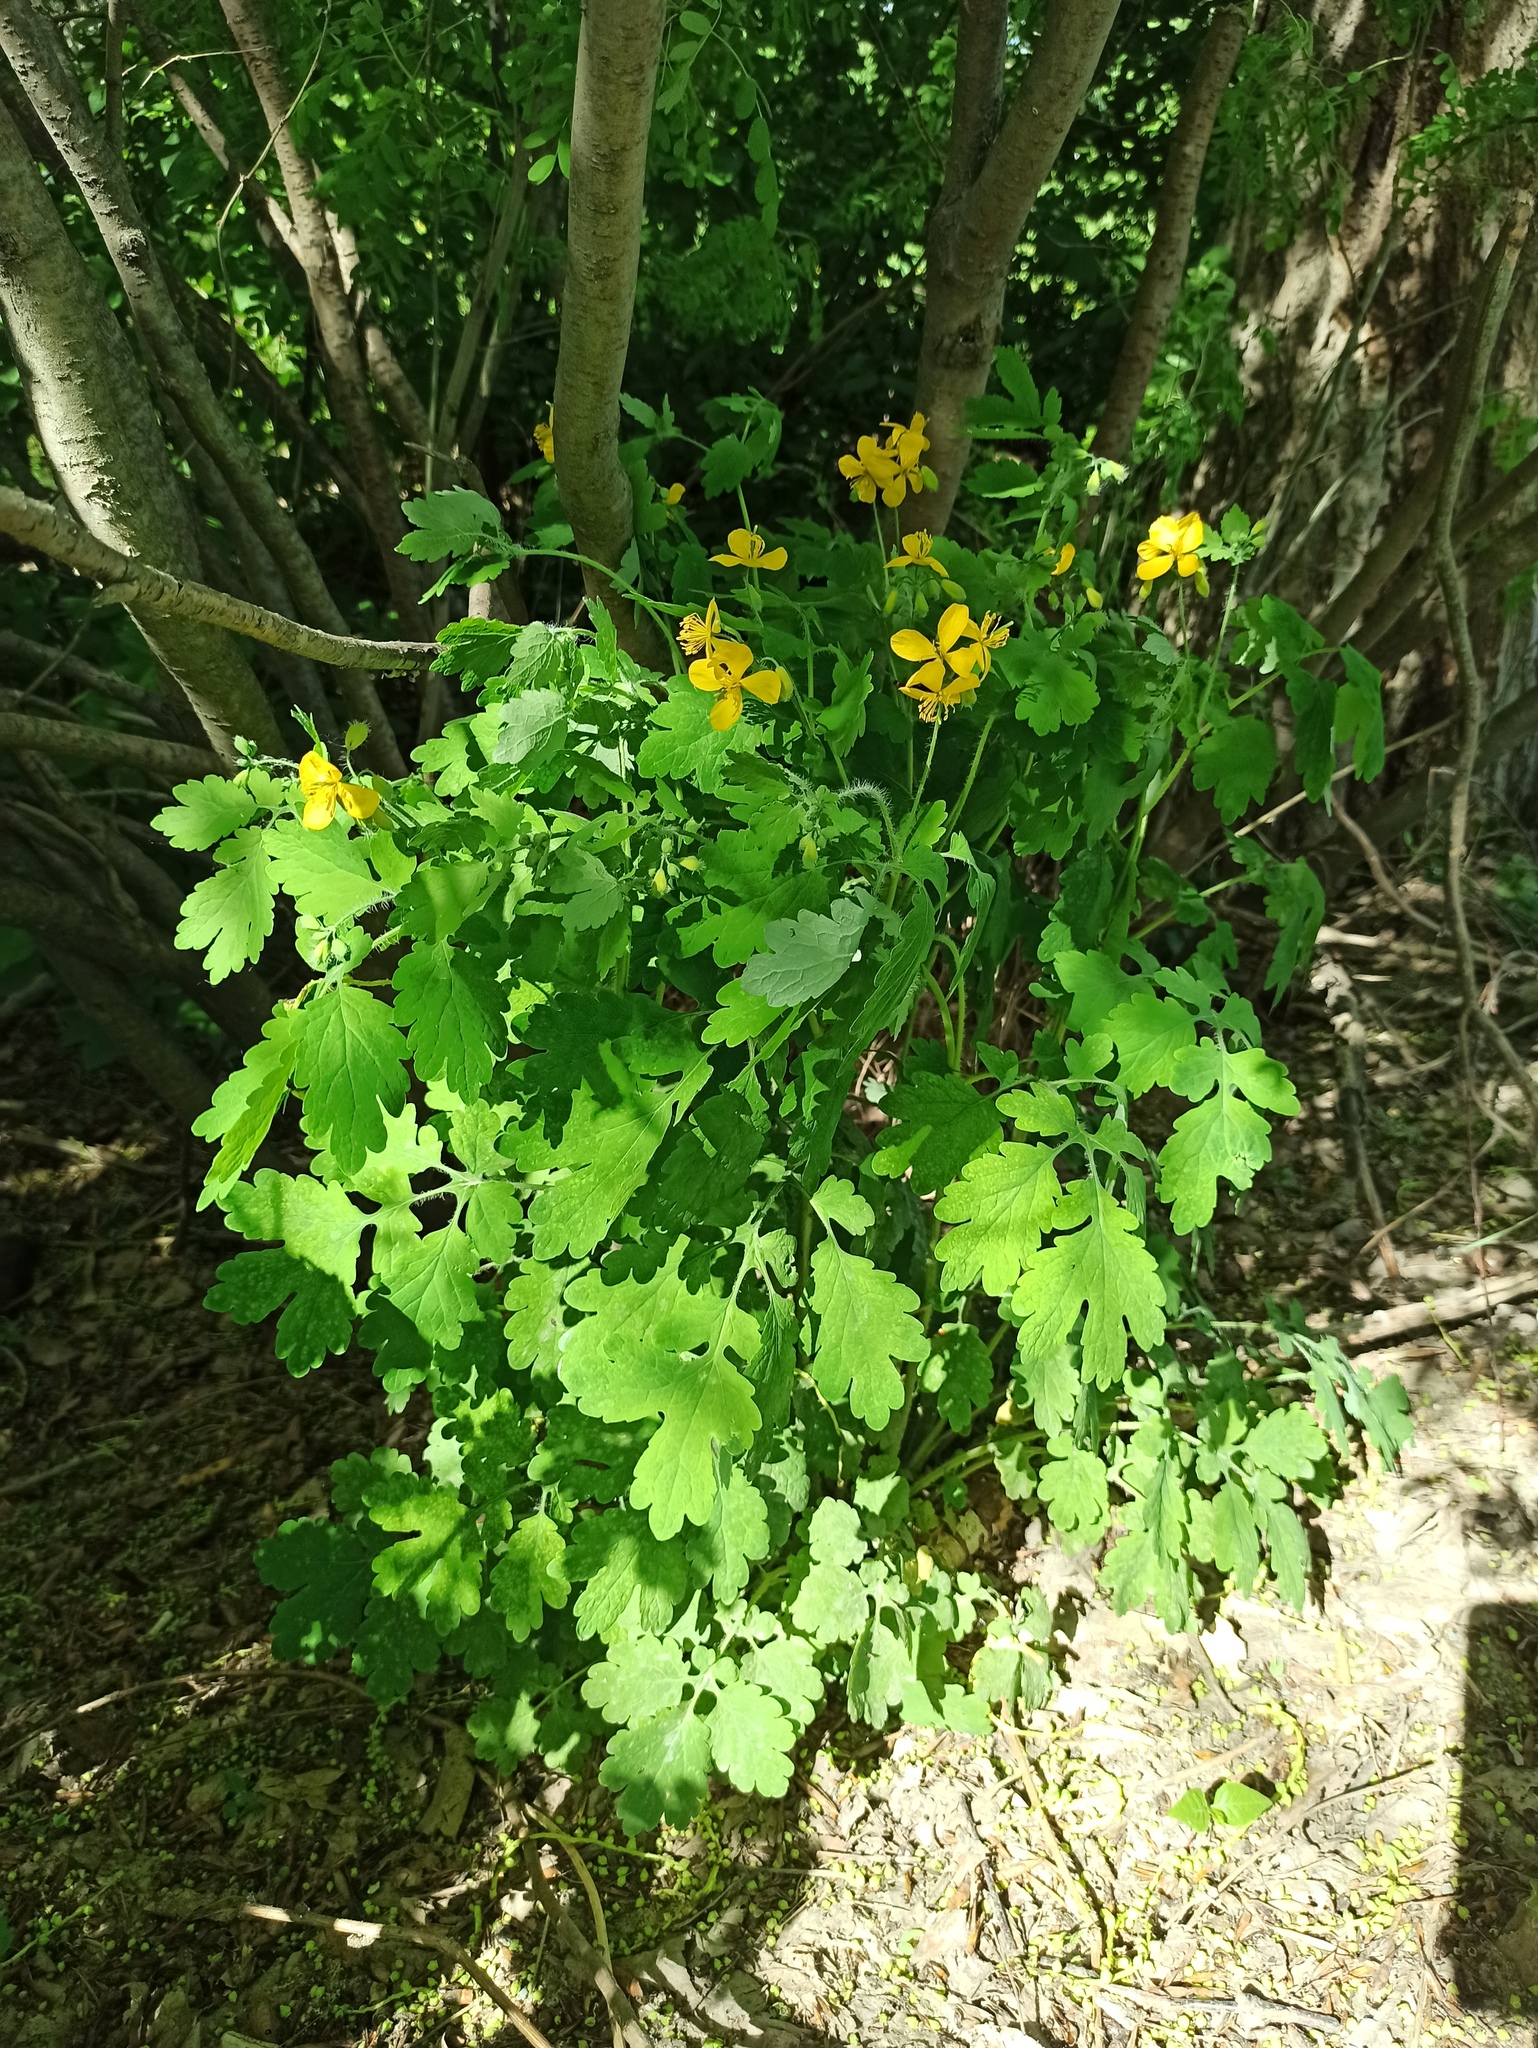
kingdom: Plantae
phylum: Tracheophyta
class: Magnoliopsida
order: Ranunculales
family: Papaveraceae
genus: Chelidonium
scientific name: Chelidonium majus
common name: Greater celandine
